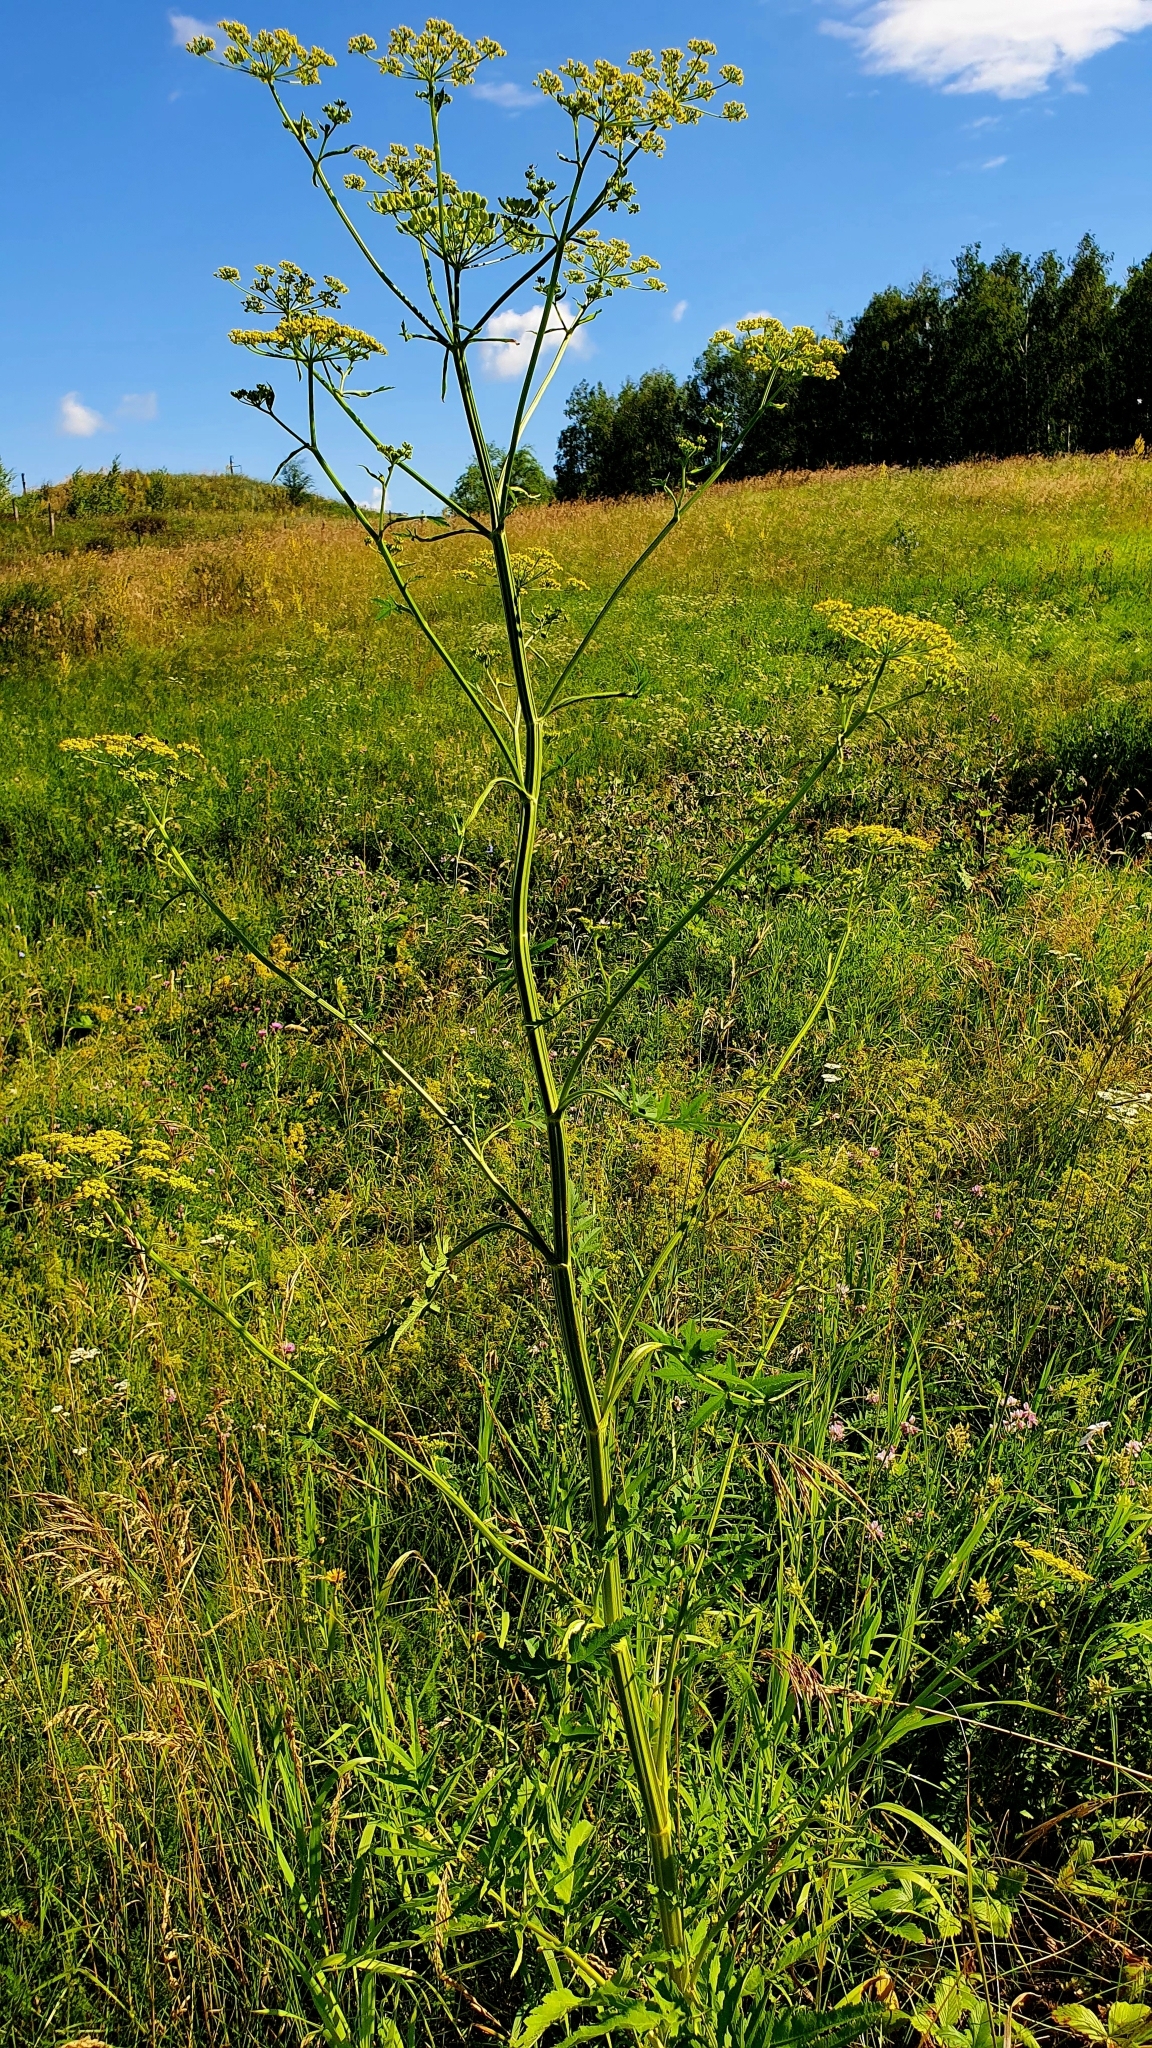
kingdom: Plantae
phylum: Tracheophyta
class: Magnoliopsida
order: Apiales
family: Apiaceae
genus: Pastinaca
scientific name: Pastinaca sativa
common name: Wild parsnip
